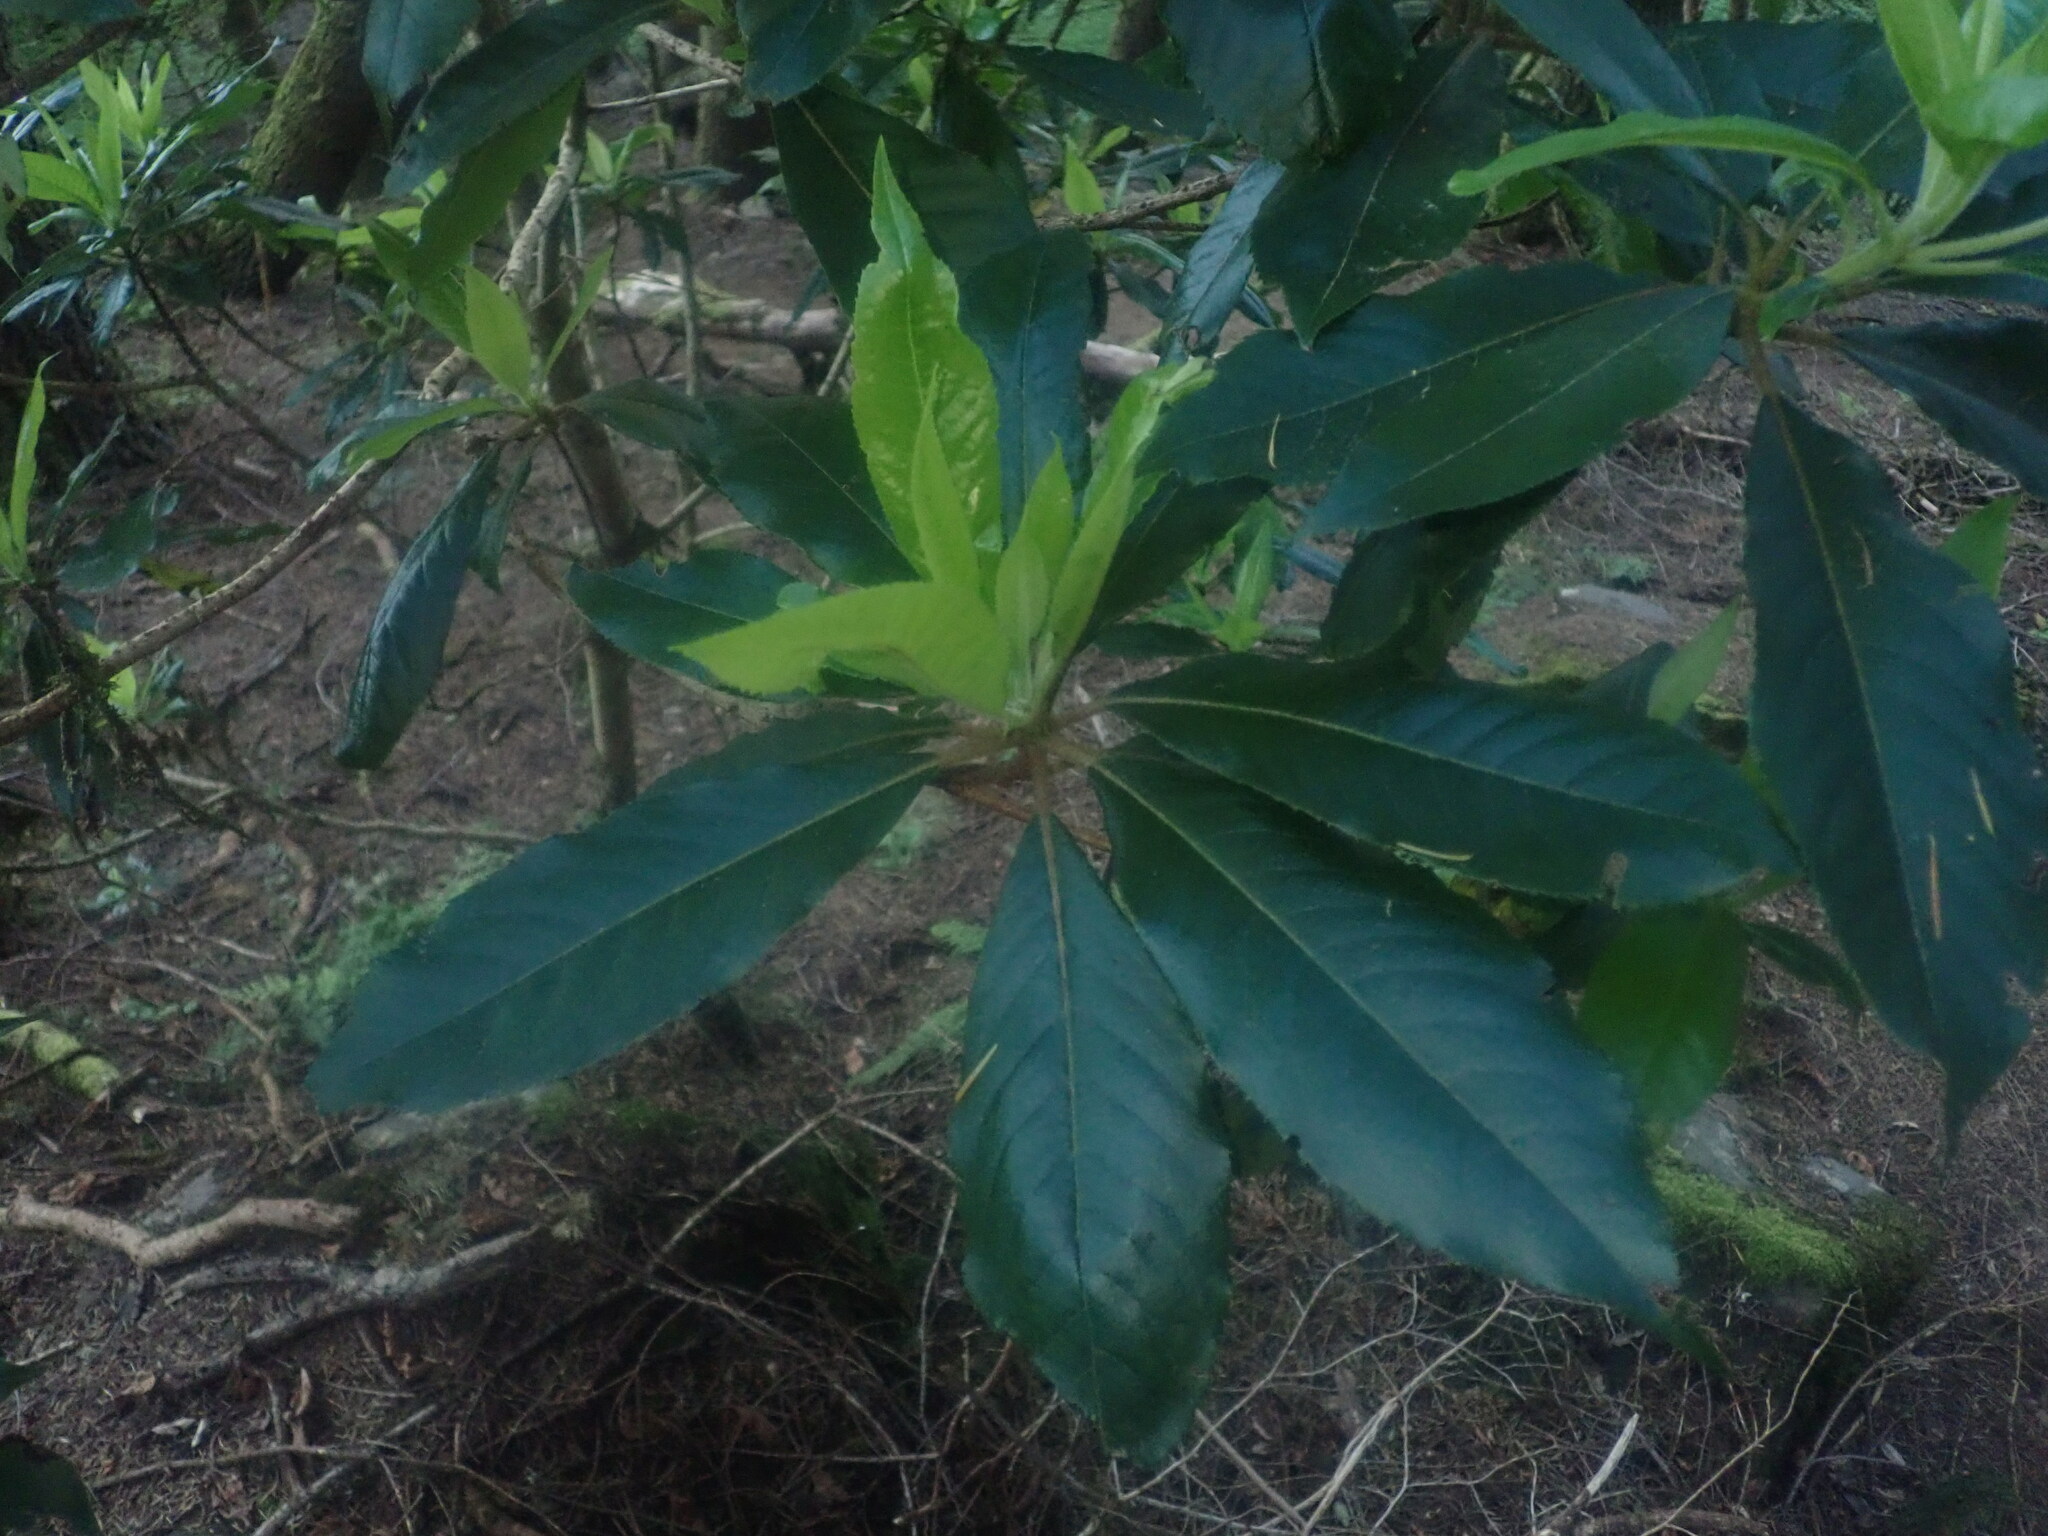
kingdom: Plantae
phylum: Tracheophyta
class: Magnoliopsida
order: Ericales
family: Clethraceae
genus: Clethra
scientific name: Clethra arborea
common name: Lily-of-the-valley-tree
